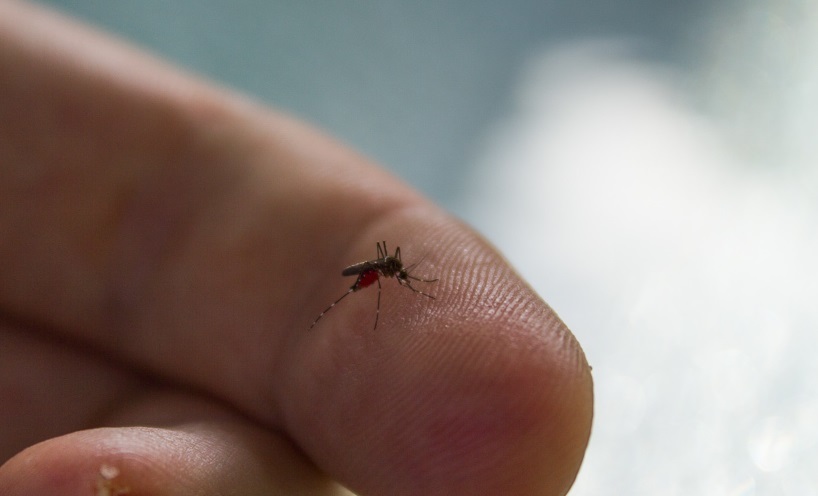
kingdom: Animalia
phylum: Arthropoda
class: Insecta
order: Diptera
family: Culicidae
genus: Aedes
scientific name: Aedes notoscriptus
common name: Australian backyard mosquito
